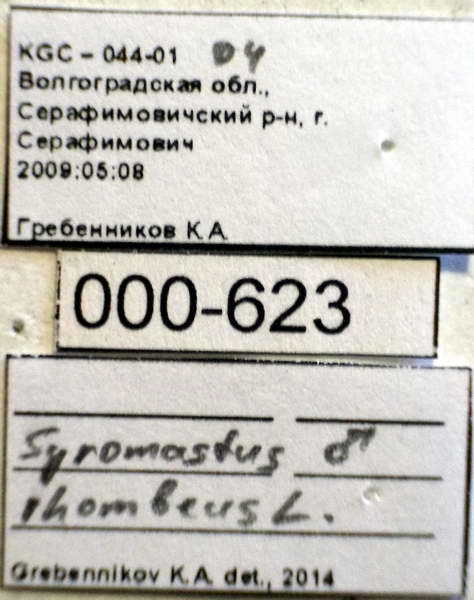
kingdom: Animalia
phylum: Arthropoda
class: Insecta
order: Hemiptera
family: Coreidae
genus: Syromastus
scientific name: Syromastus rhombeus
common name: Rhombic leatherbug
